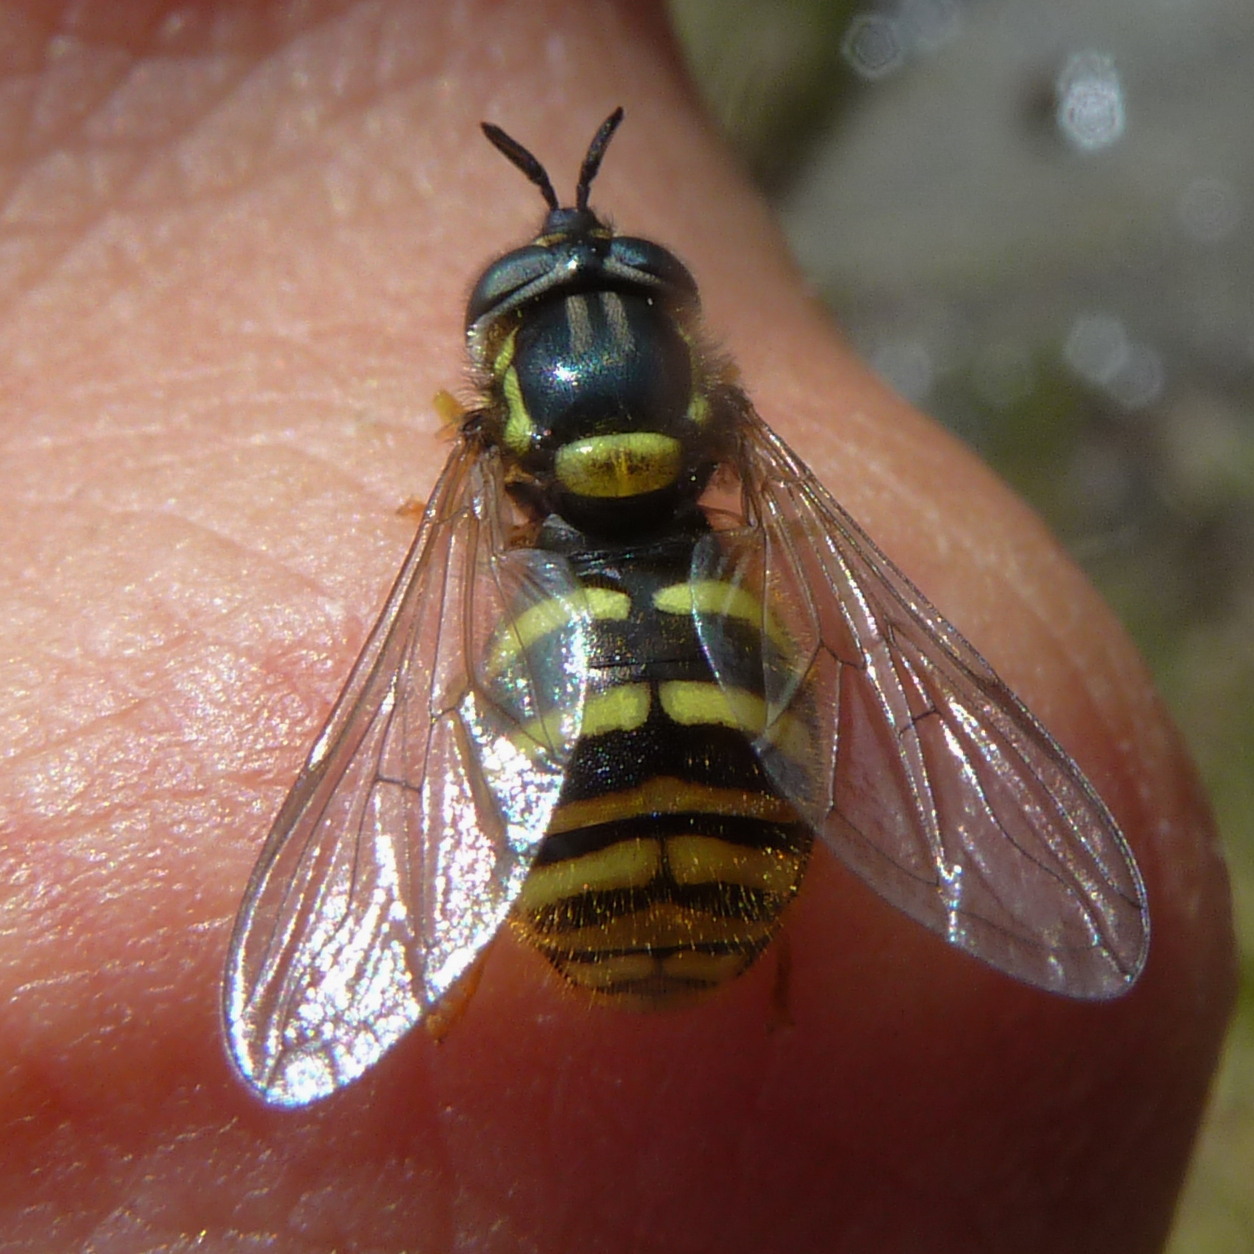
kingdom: Animalia
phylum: Arthropoda
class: Insecta
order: Diptera
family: Syrphidae
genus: Chrysotoxum
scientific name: Chrysotoxum arcuatum
